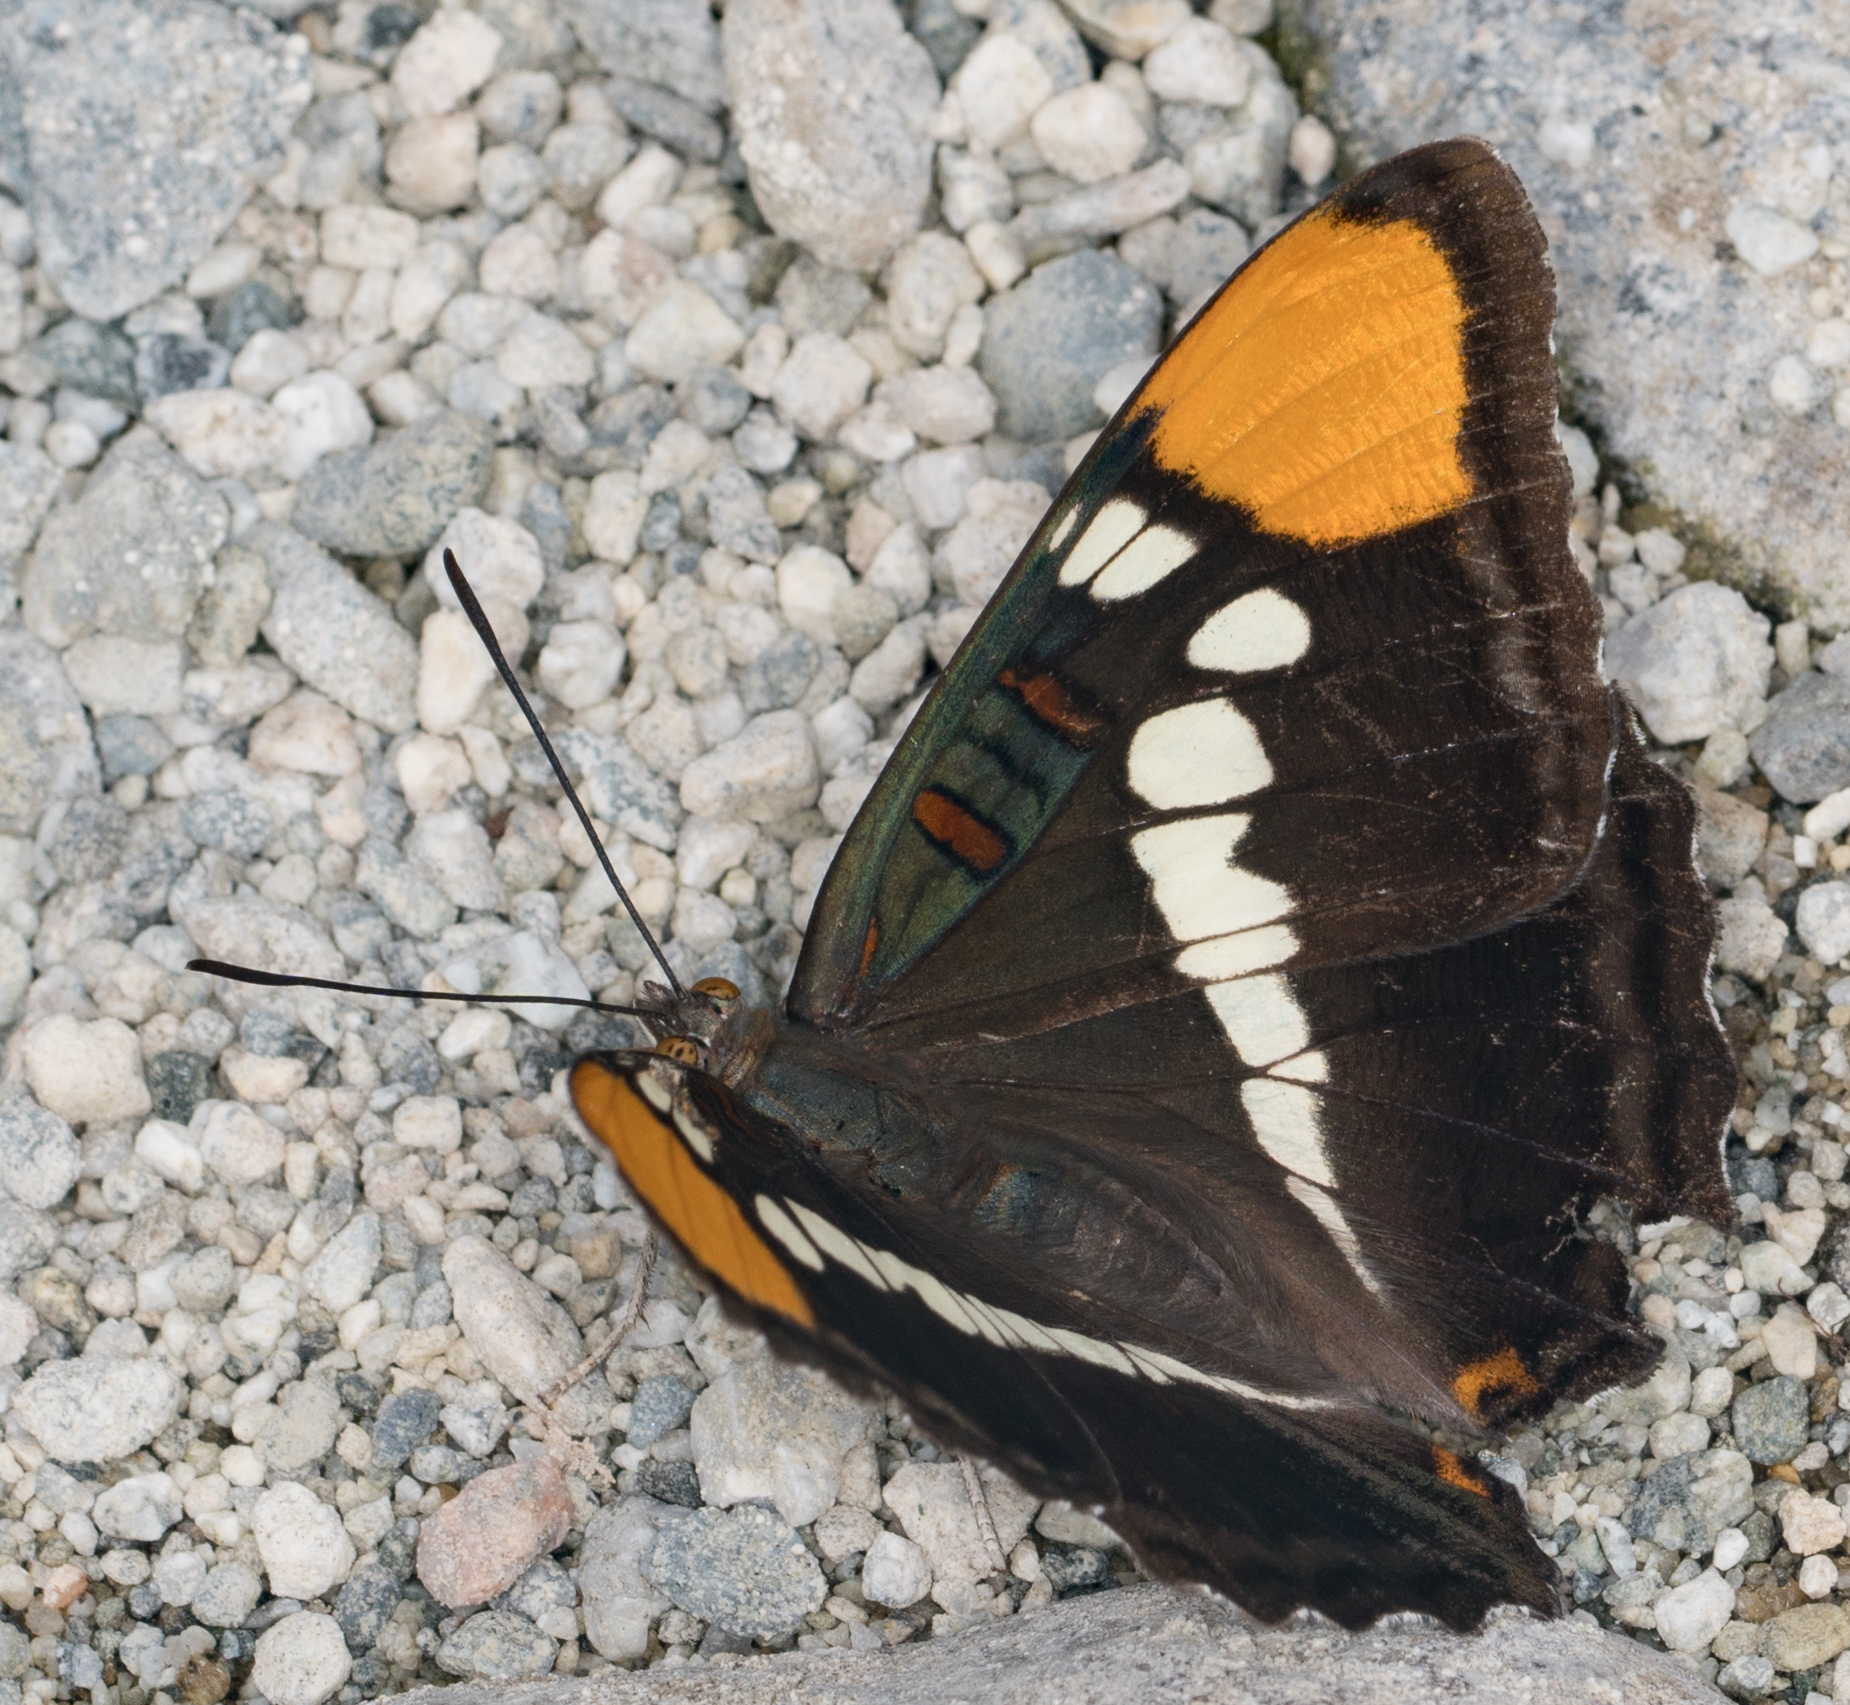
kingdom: Animalia
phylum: Arthropoda
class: Insecta
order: Lepidoptera
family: Nymphalidae
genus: Limenitis
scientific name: Limenitis bredowii
